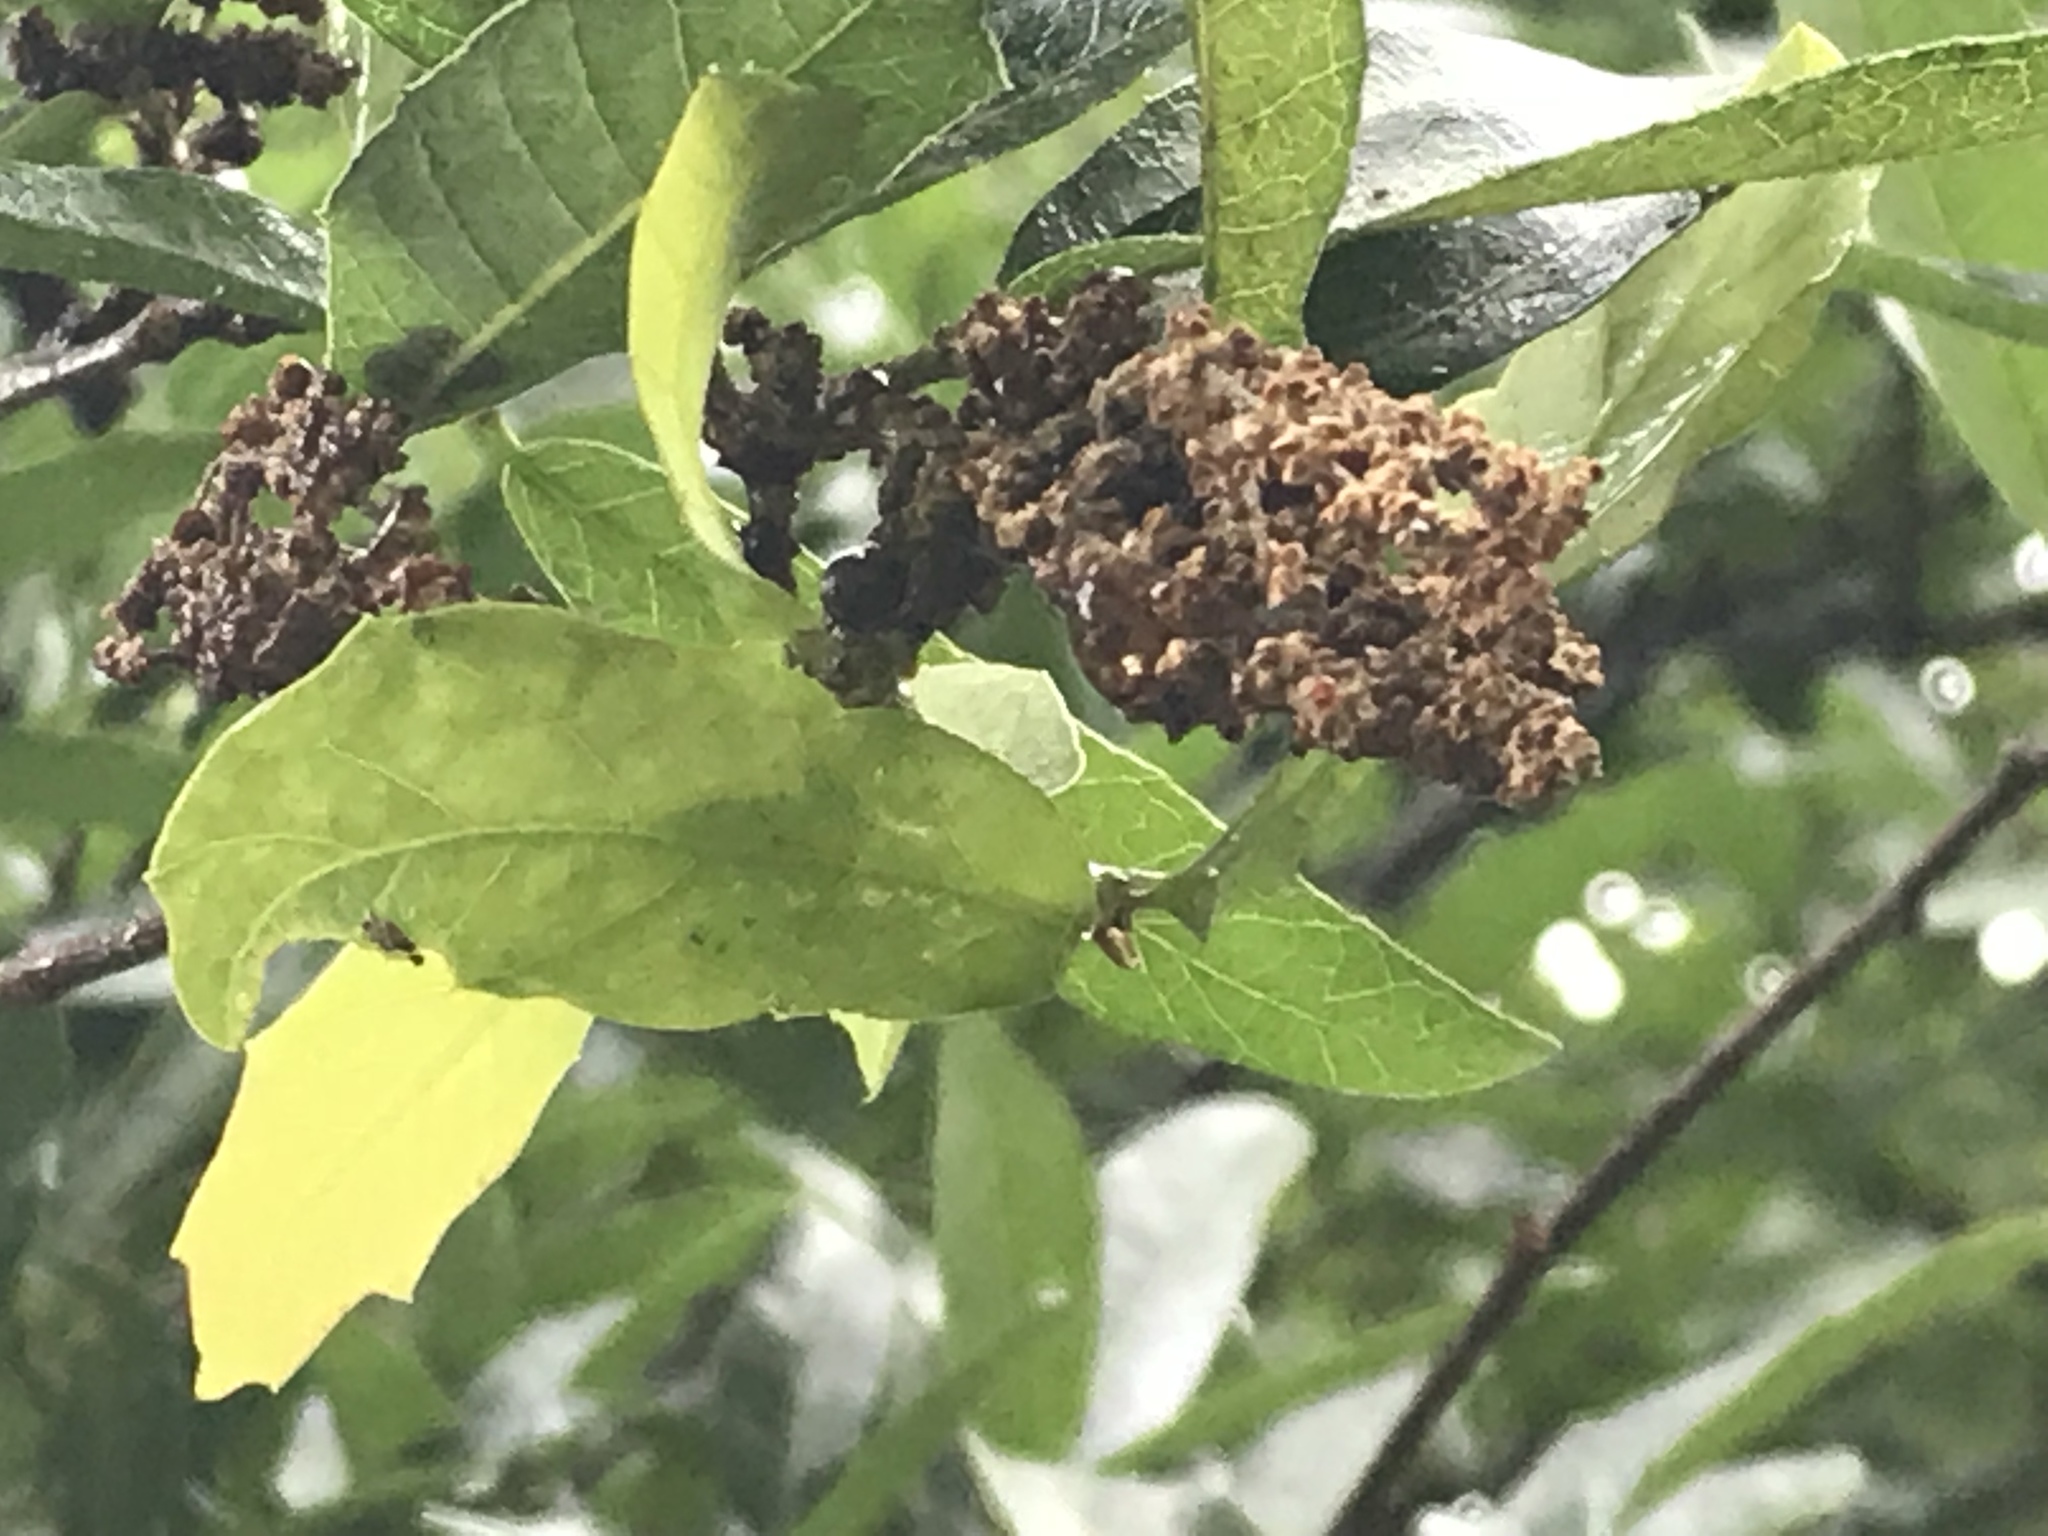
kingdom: Plantae
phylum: Tracheophyta
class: Magnoliopsida
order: Fagales
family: Fagaceae
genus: Quercus
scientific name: Quercus vaseyana
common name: Sandpaper oak
